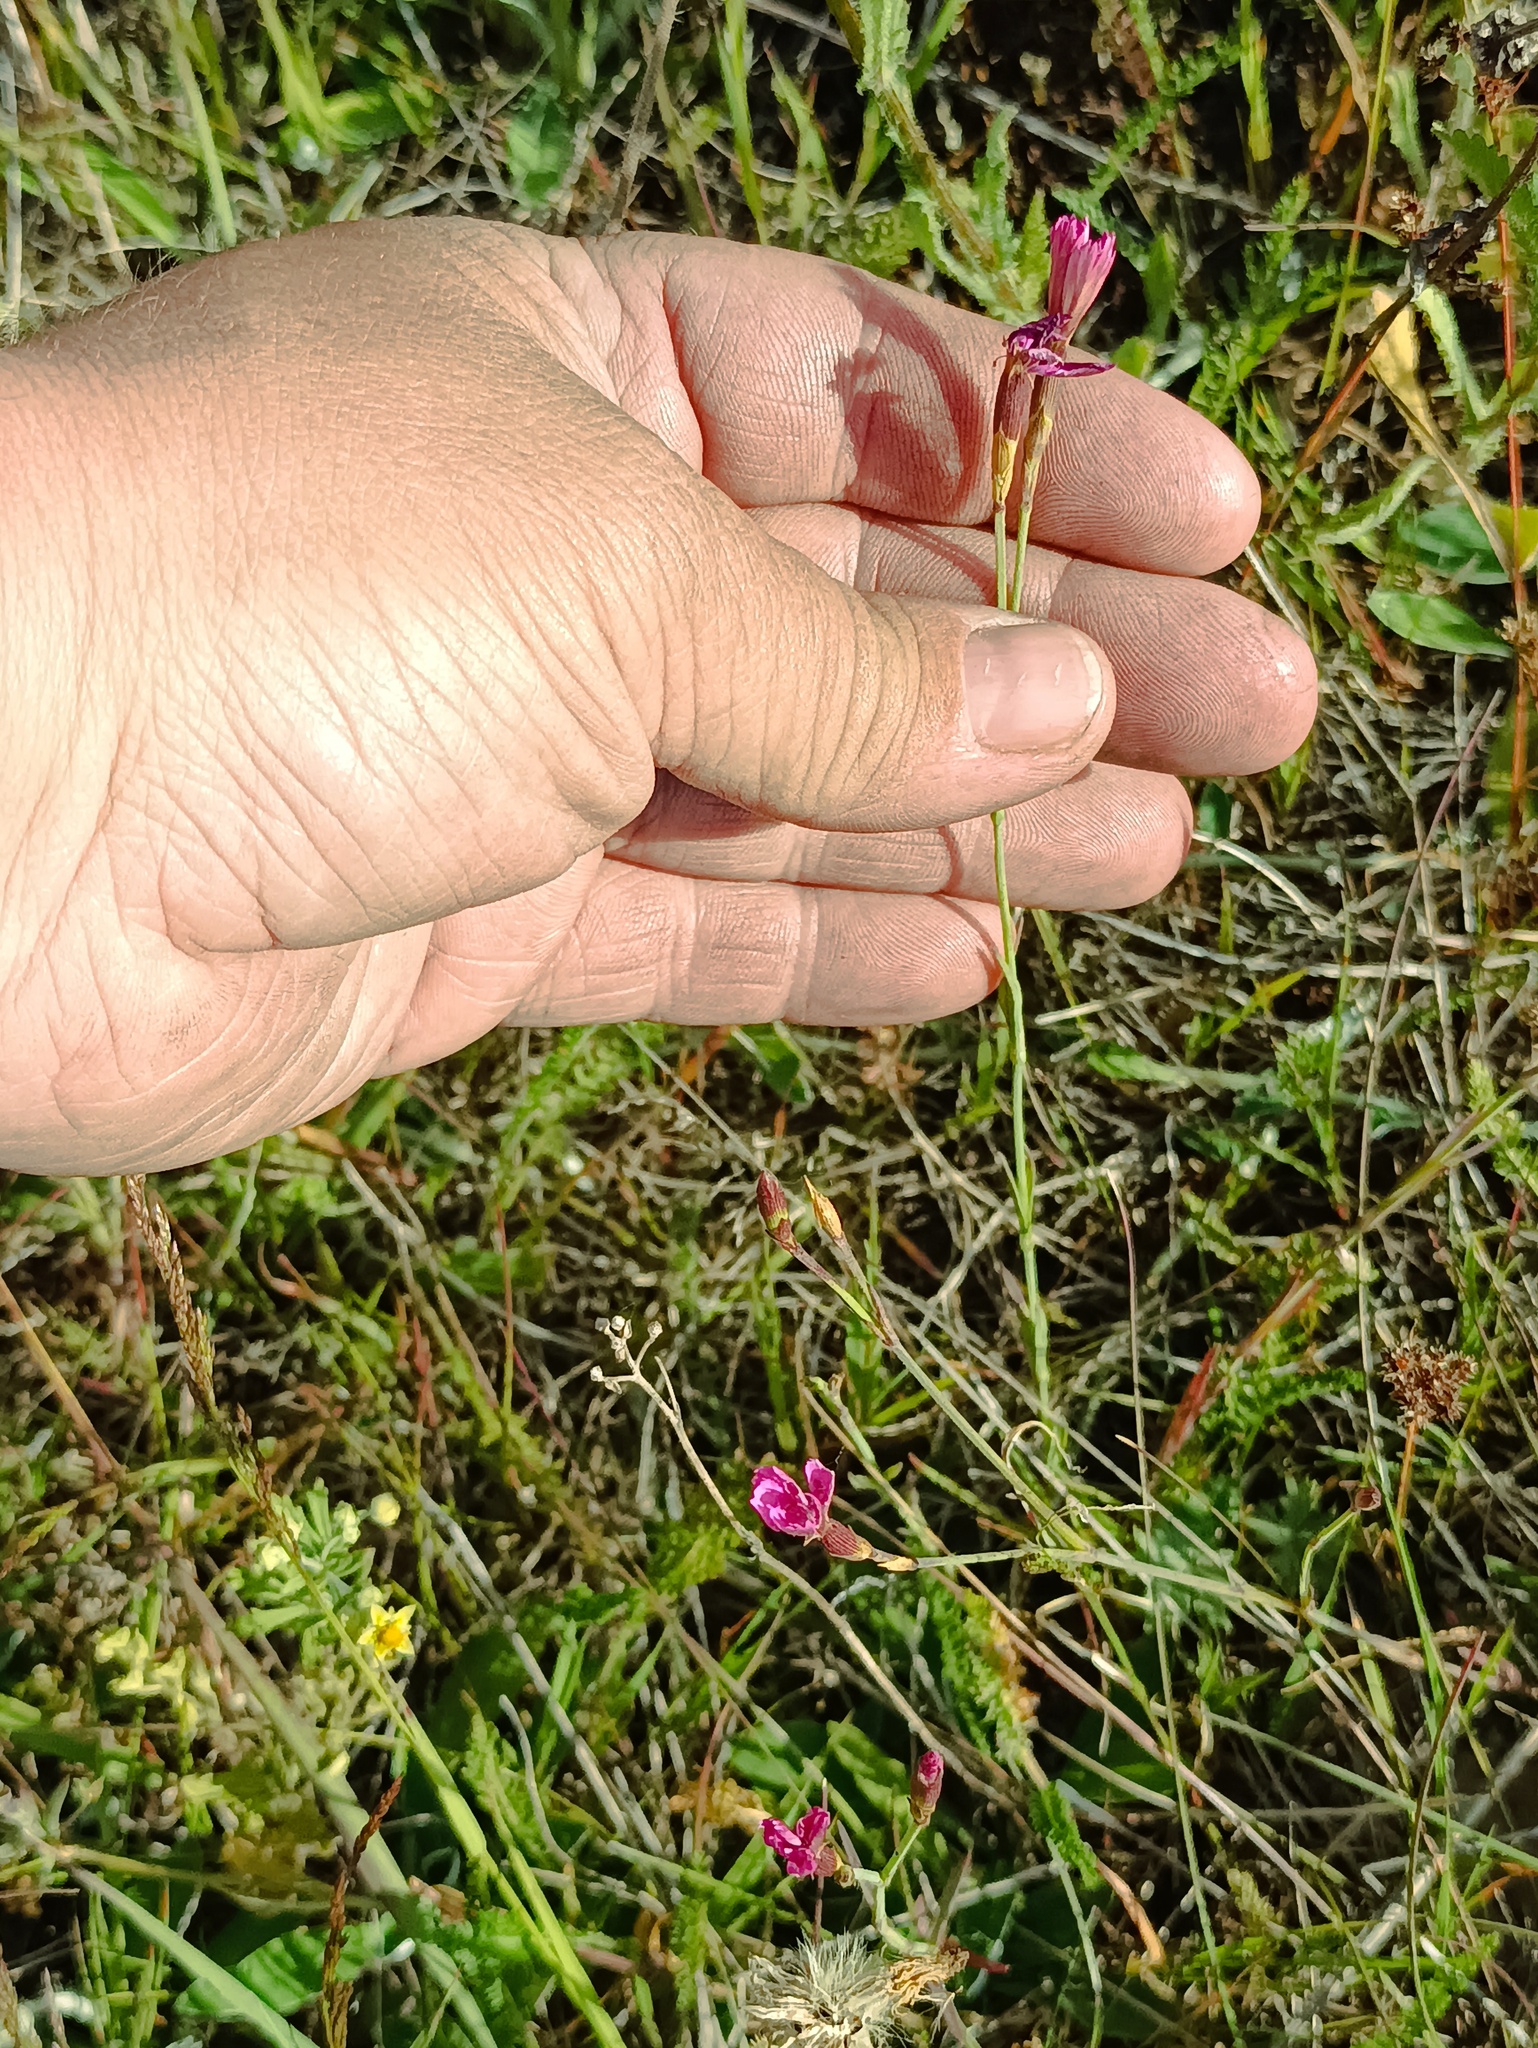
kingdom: Plantae
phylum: Tracheophyta
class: Magnoliopsida
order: Caryophyllales
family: Caryophyllaceae
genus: Dianthus
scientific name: Dianthus deltoides
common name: Maiden pink
